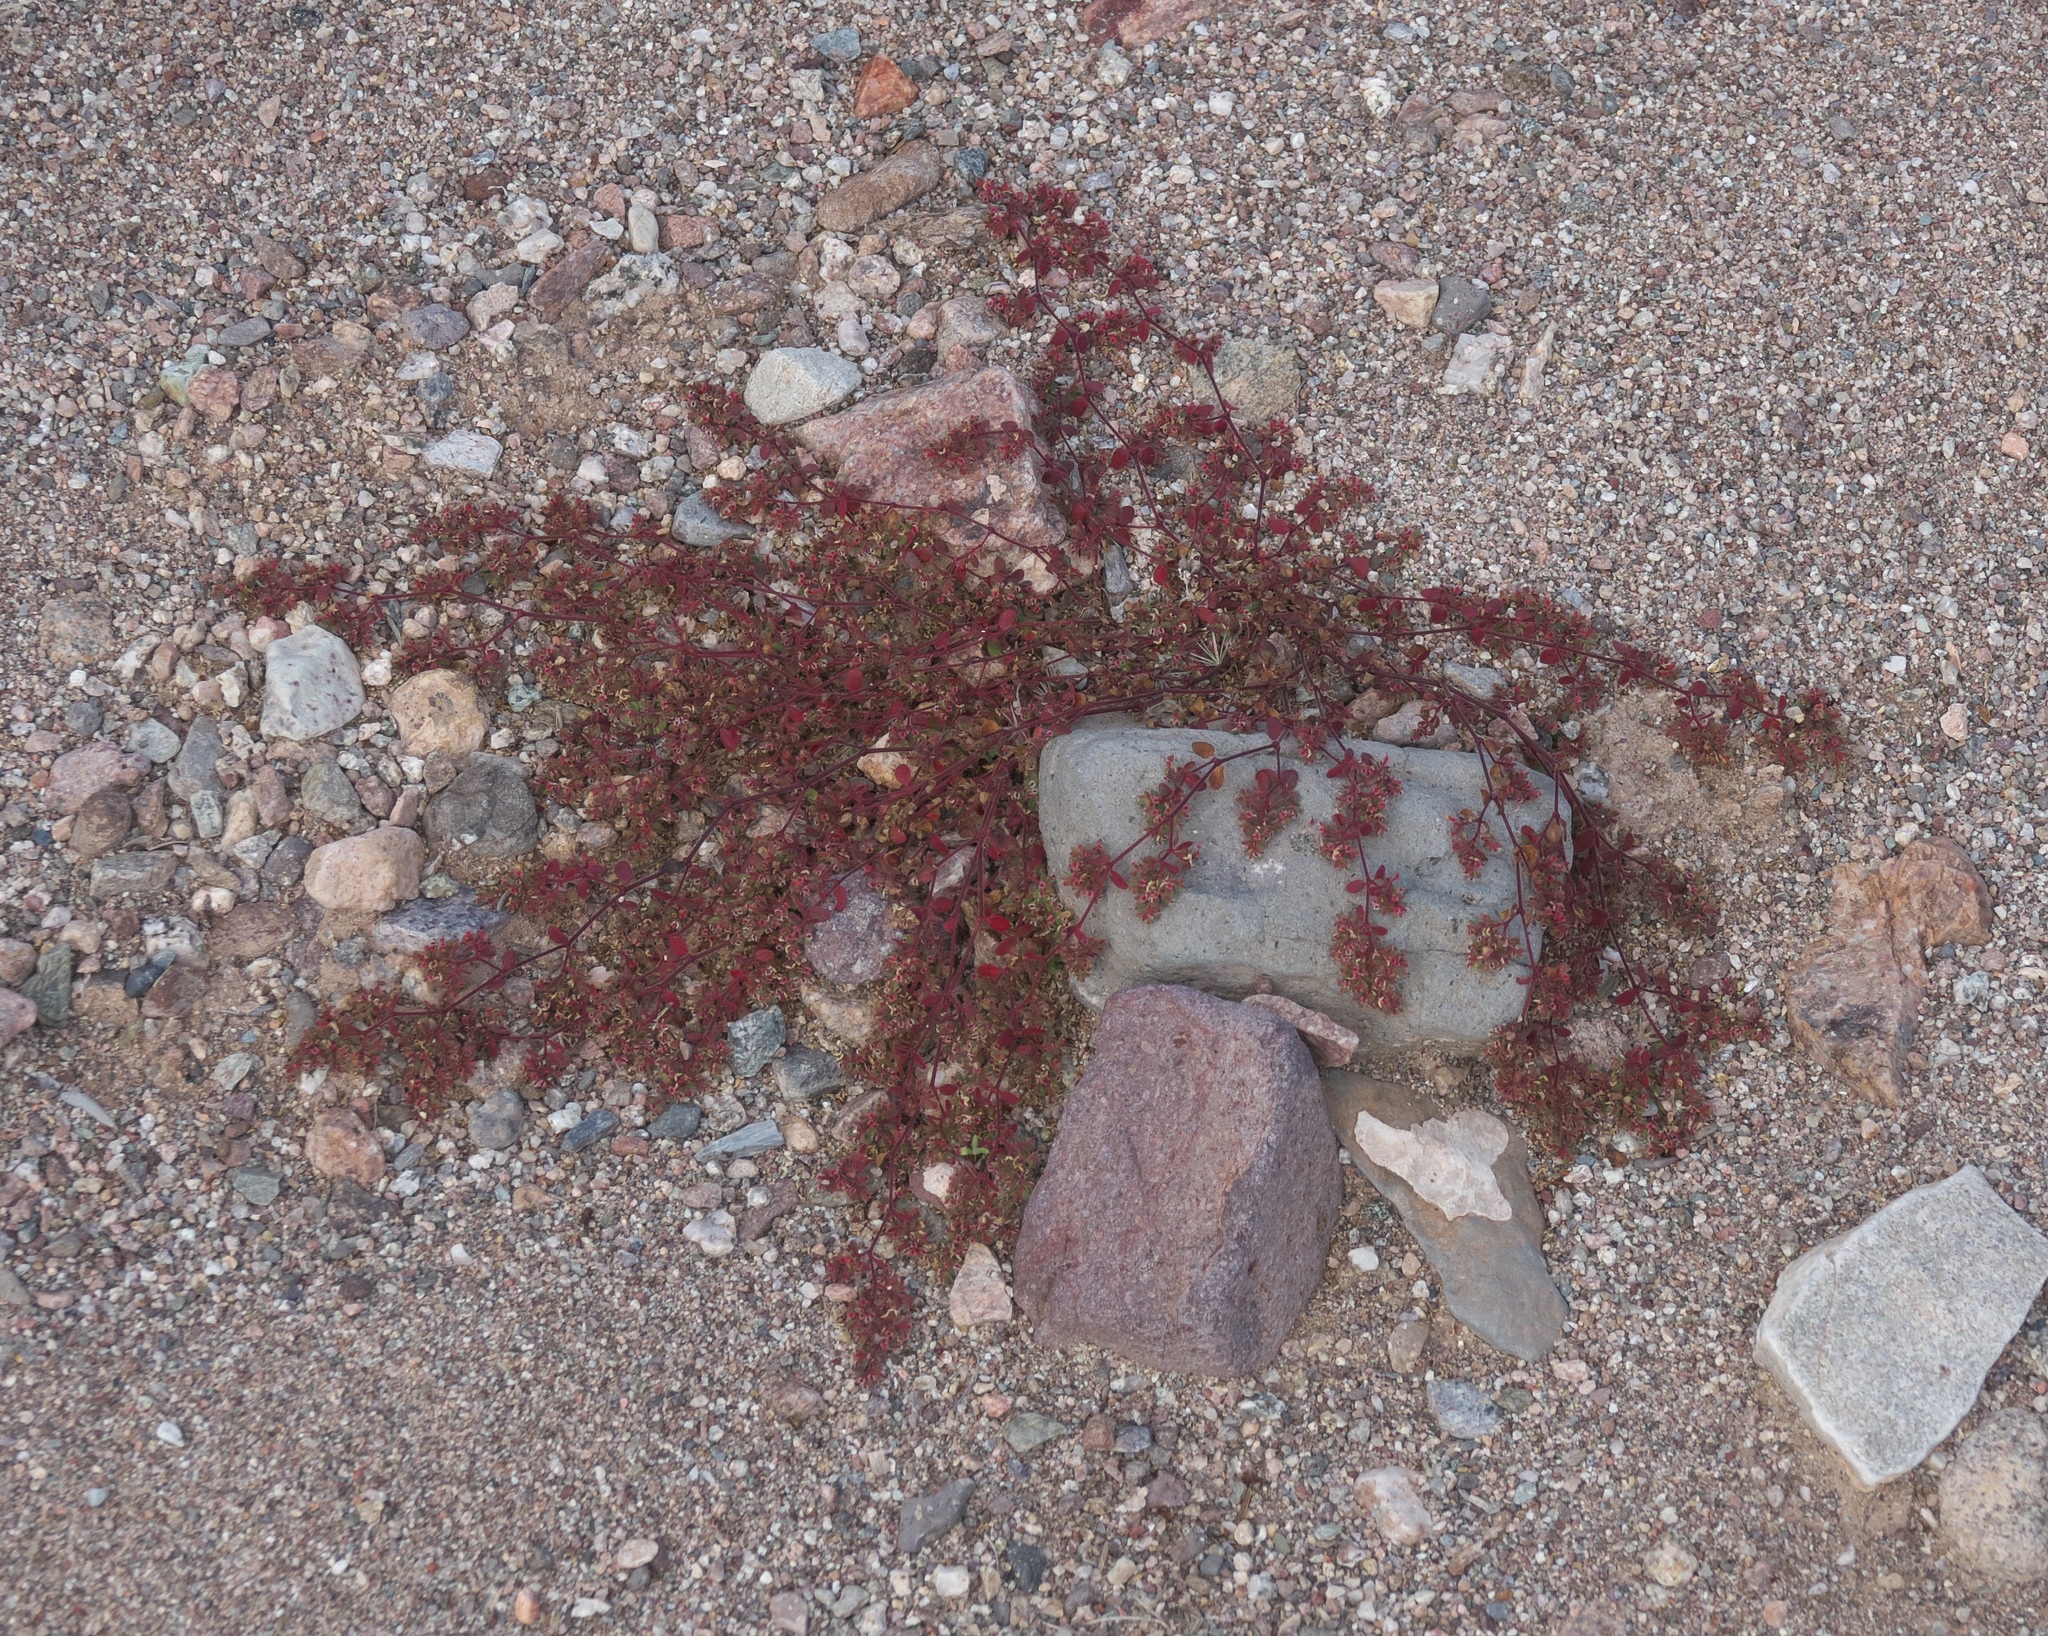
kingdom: Plantae
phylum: Tracheophyta
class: Magnoliopsida
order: Malpighiales
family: Euphorbiaceae
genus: Euphorbia
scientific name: Euphorbia setiloba
